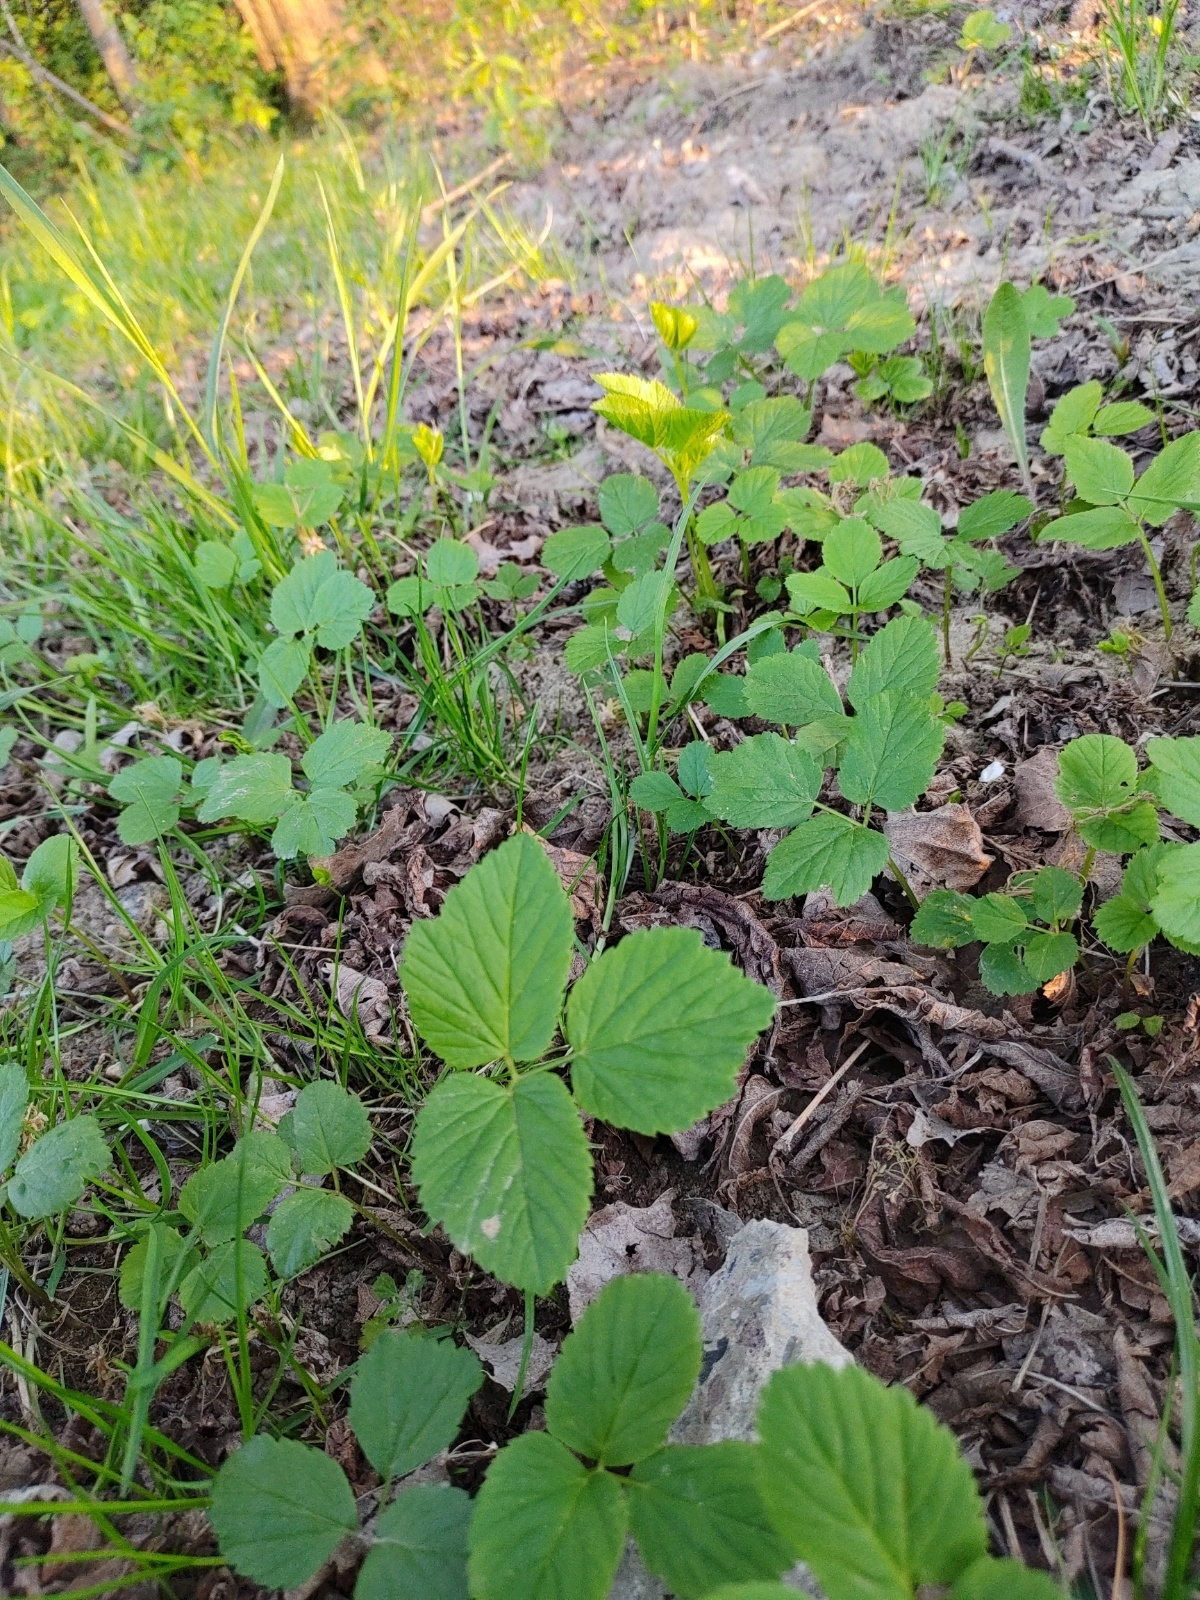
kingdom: Plantae
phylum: Tracheophyta
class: Magnoliopsida
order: Apiales
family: Apiaceae
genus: Aegopodium
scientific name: Aegopodium podagraria
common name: Ground-elder
